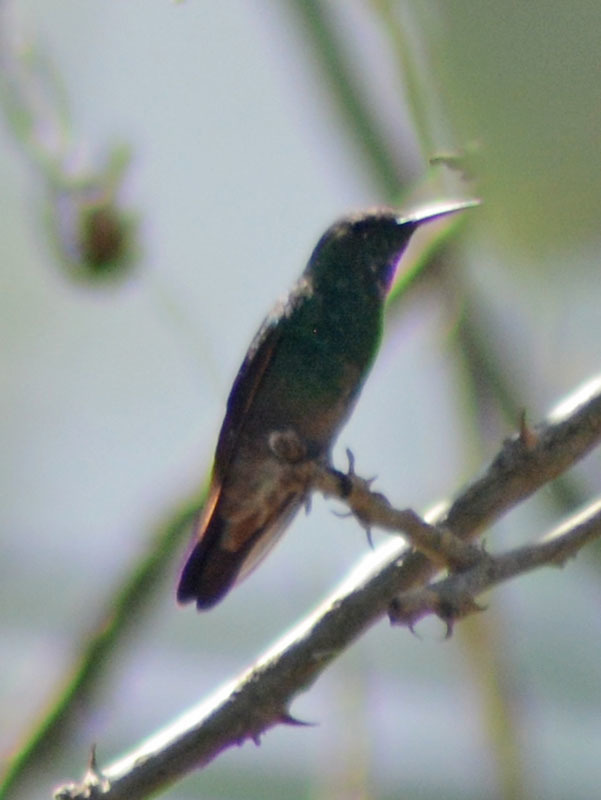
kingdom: Animalia
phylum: Chordata
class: Aves
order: Apodiformes
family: Trochilidae
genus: Saucerottia
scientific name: Saucerottia beryllina
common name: Berylline hummingbird
